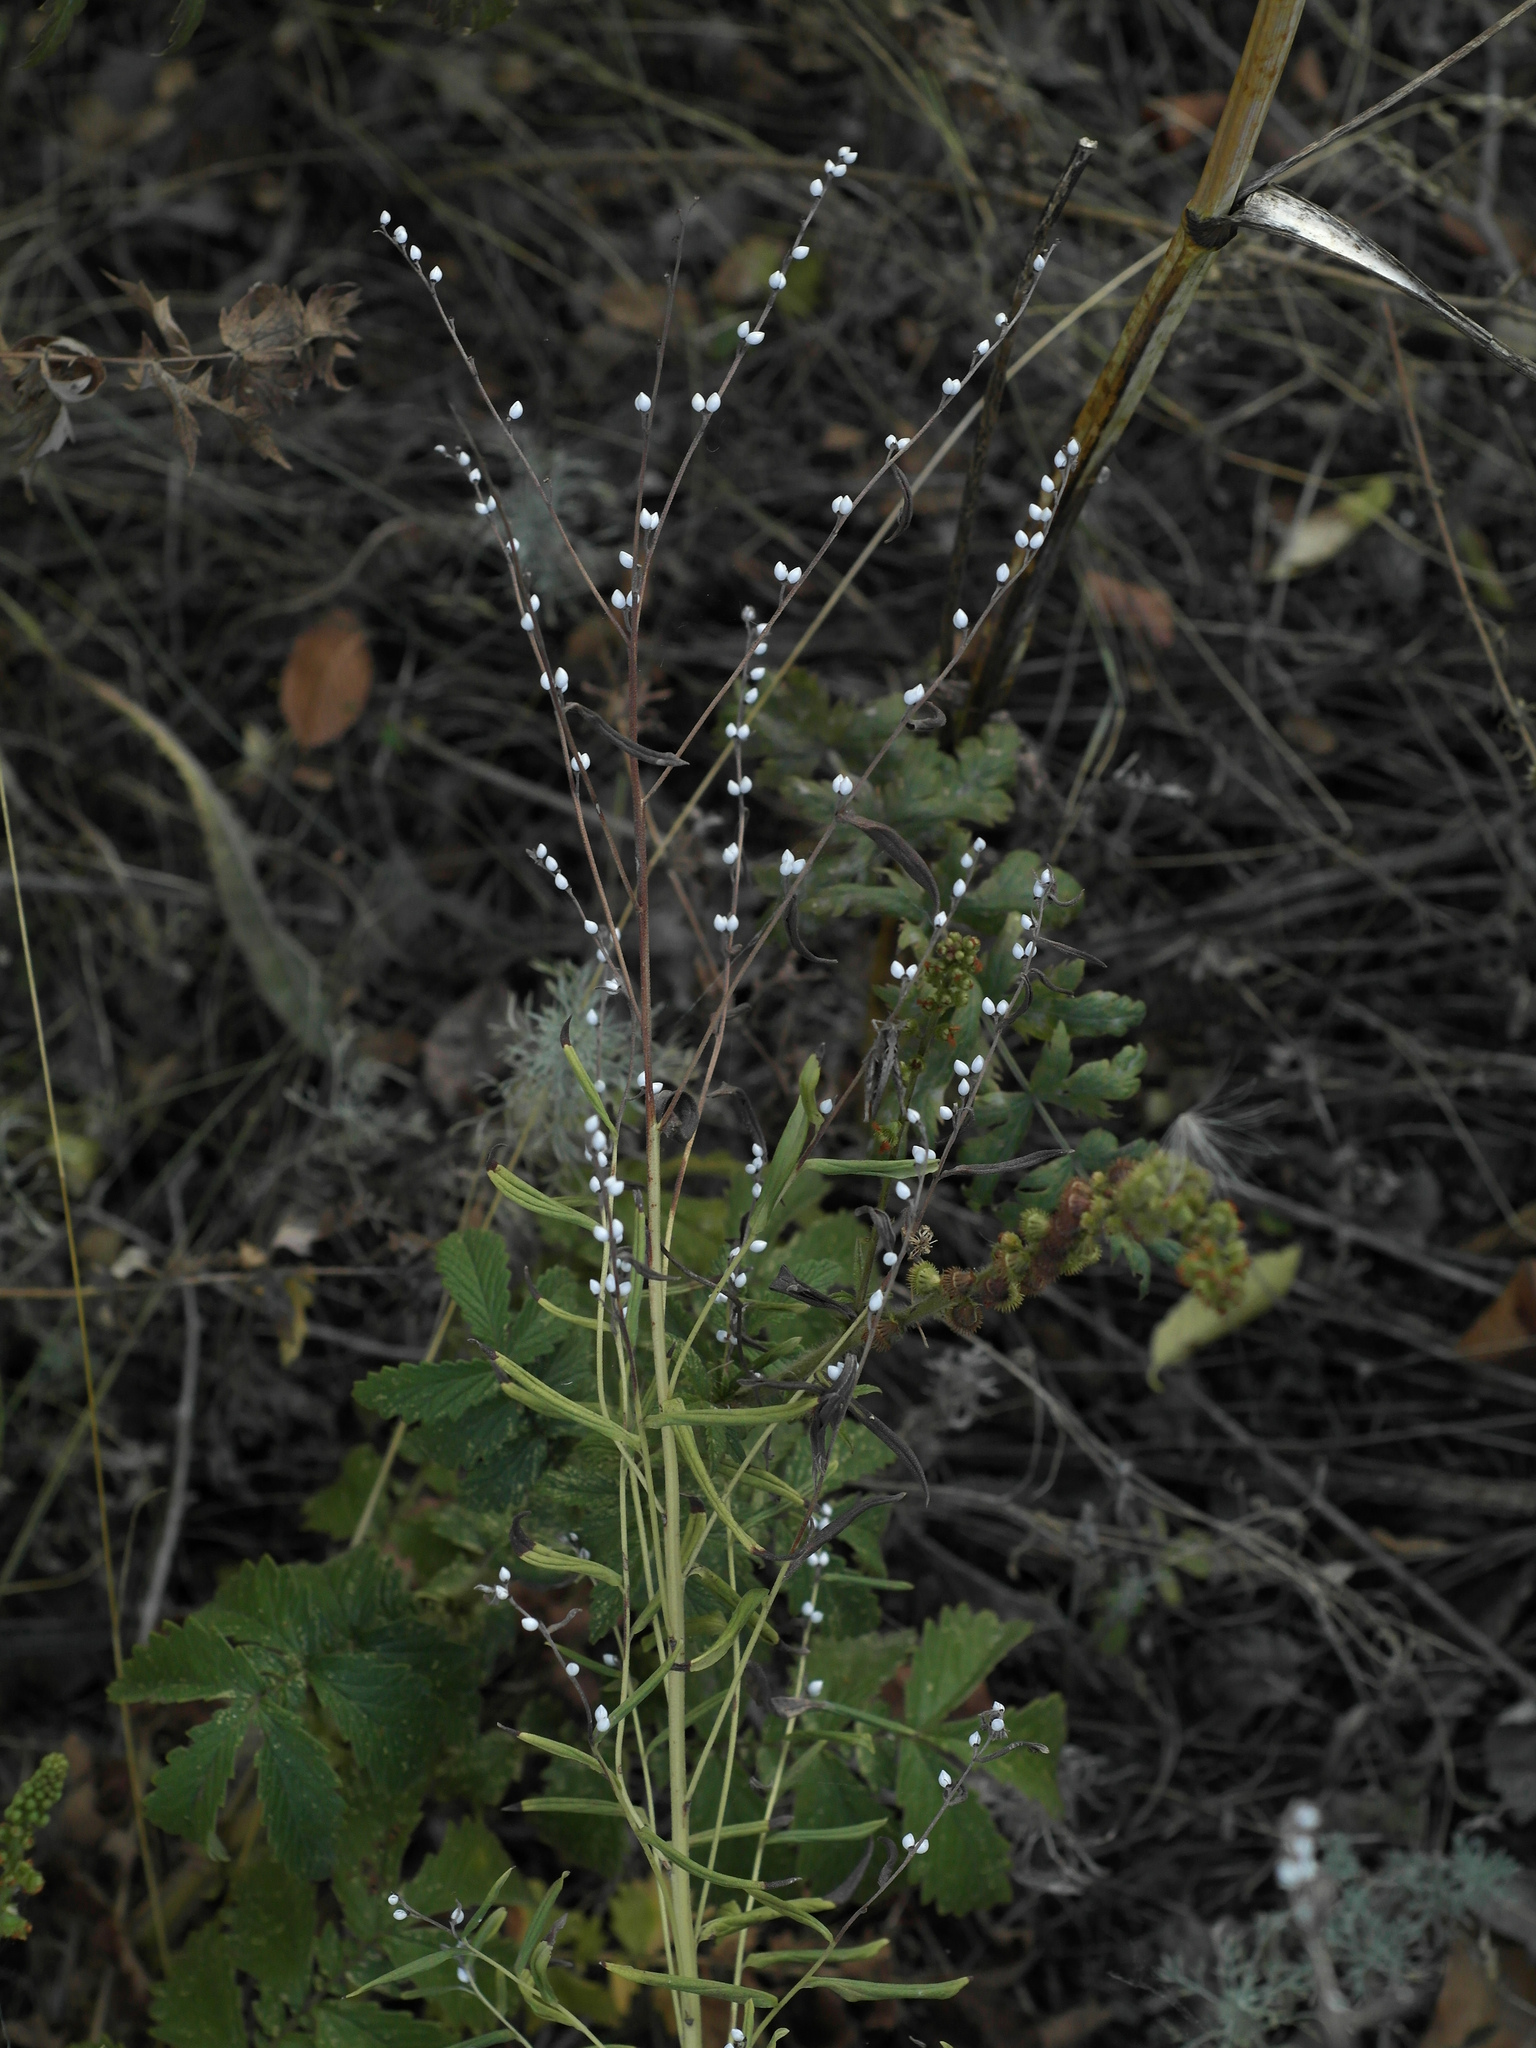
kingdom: Plantae
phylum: Tracheophyta
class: Magnoliopsida
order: Boraginales
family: Boraginaceae
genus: Lithospermum
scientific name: Lithospermum officinale
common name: Common gromwell
